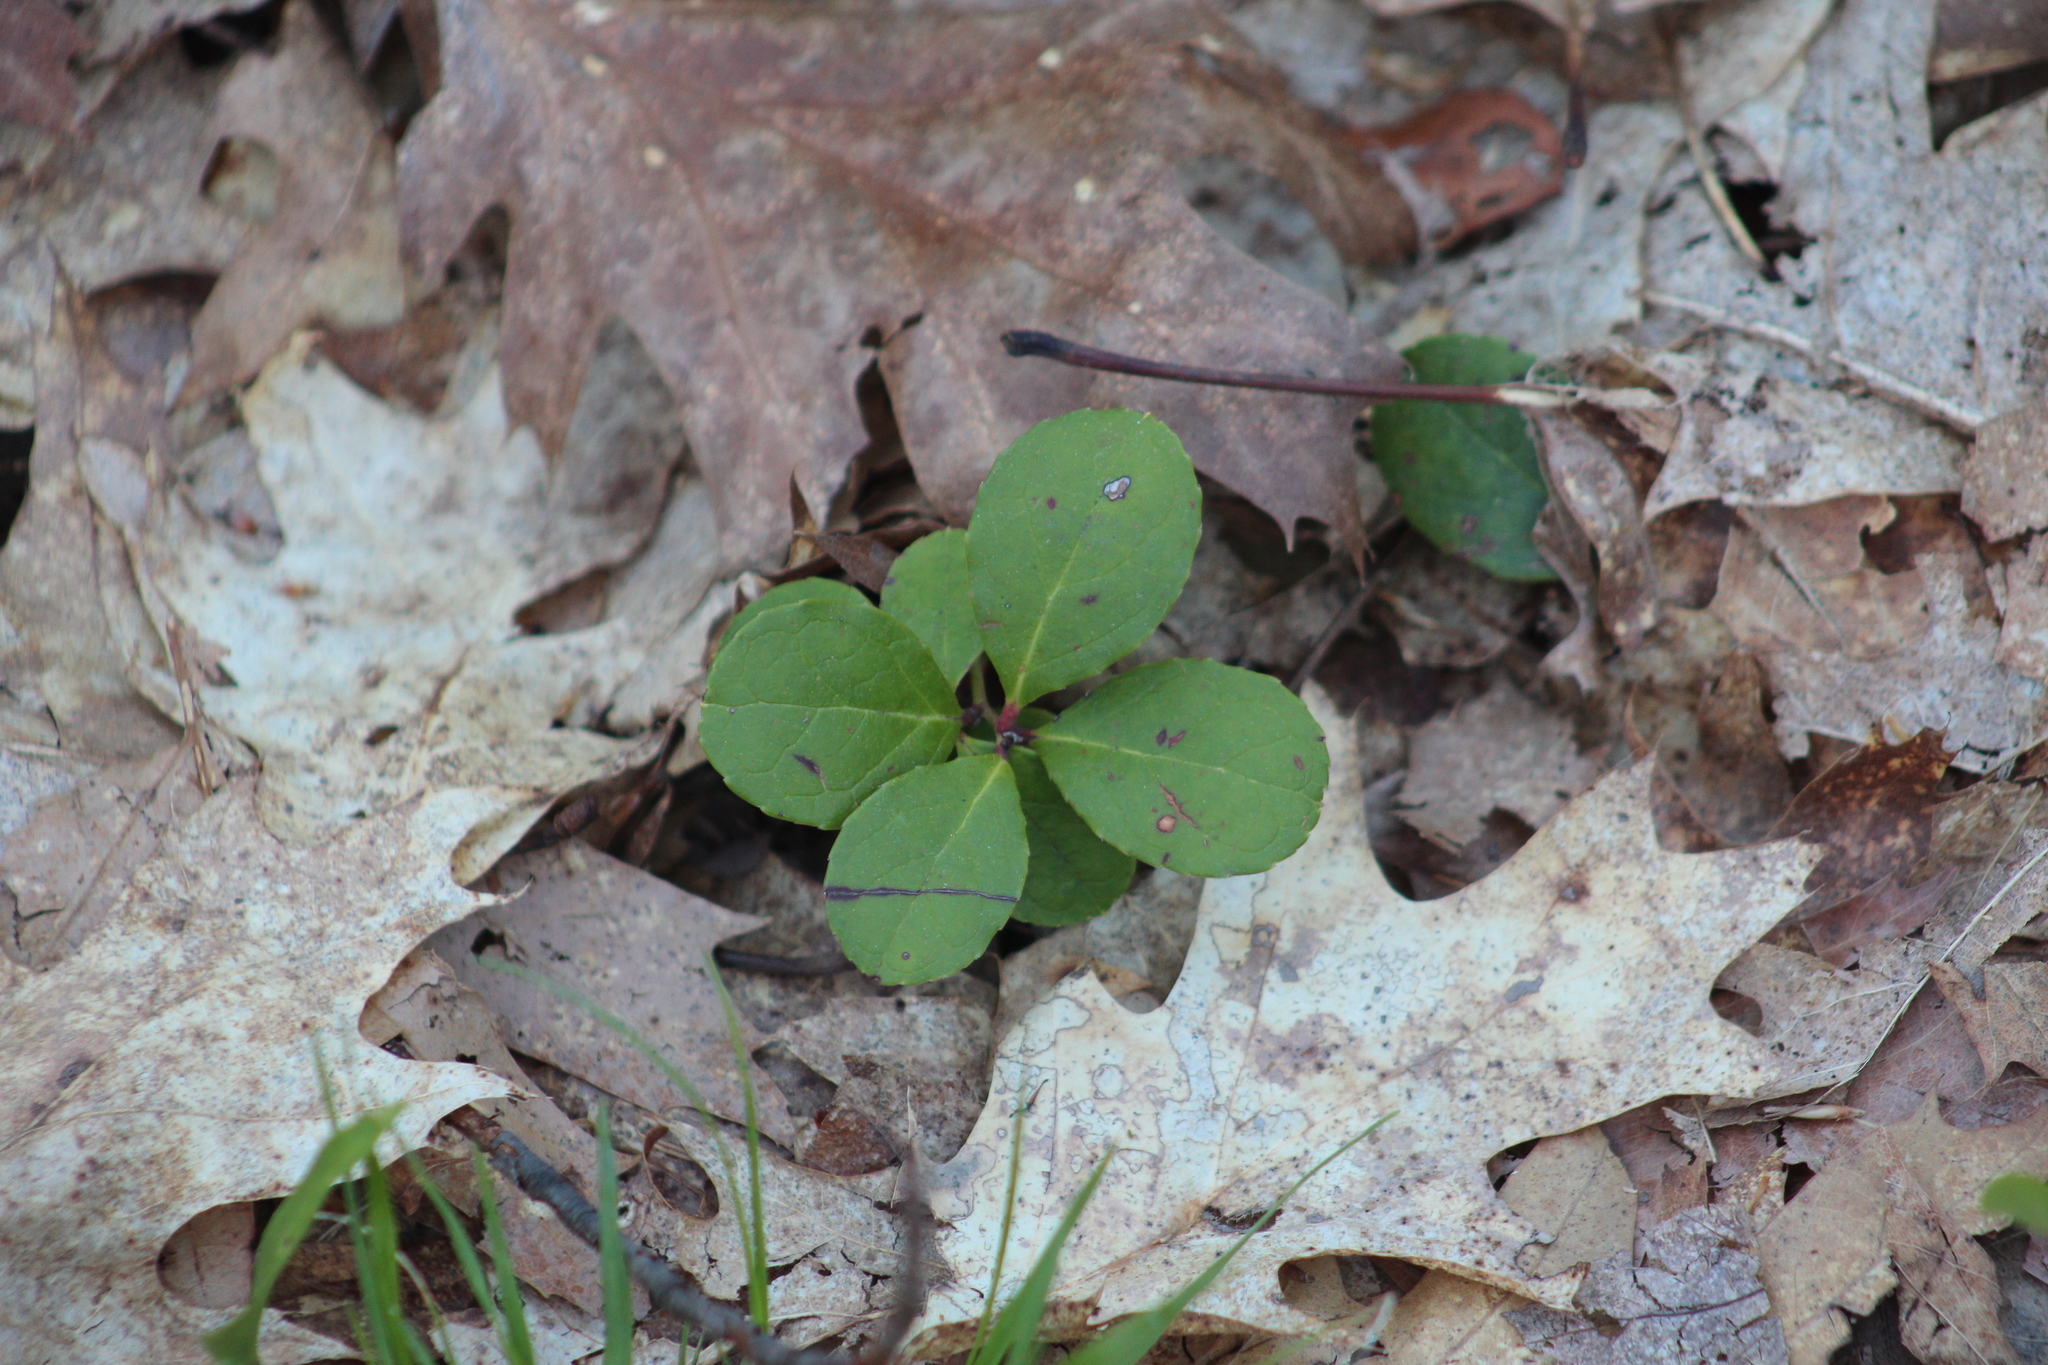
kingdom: Plantae
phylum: Tracheophyta
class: Magnoliopsida
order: Ericales
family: Ericaceae
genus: Gaultheria
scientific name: Gaultheria procumbens
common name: Checkerberry
